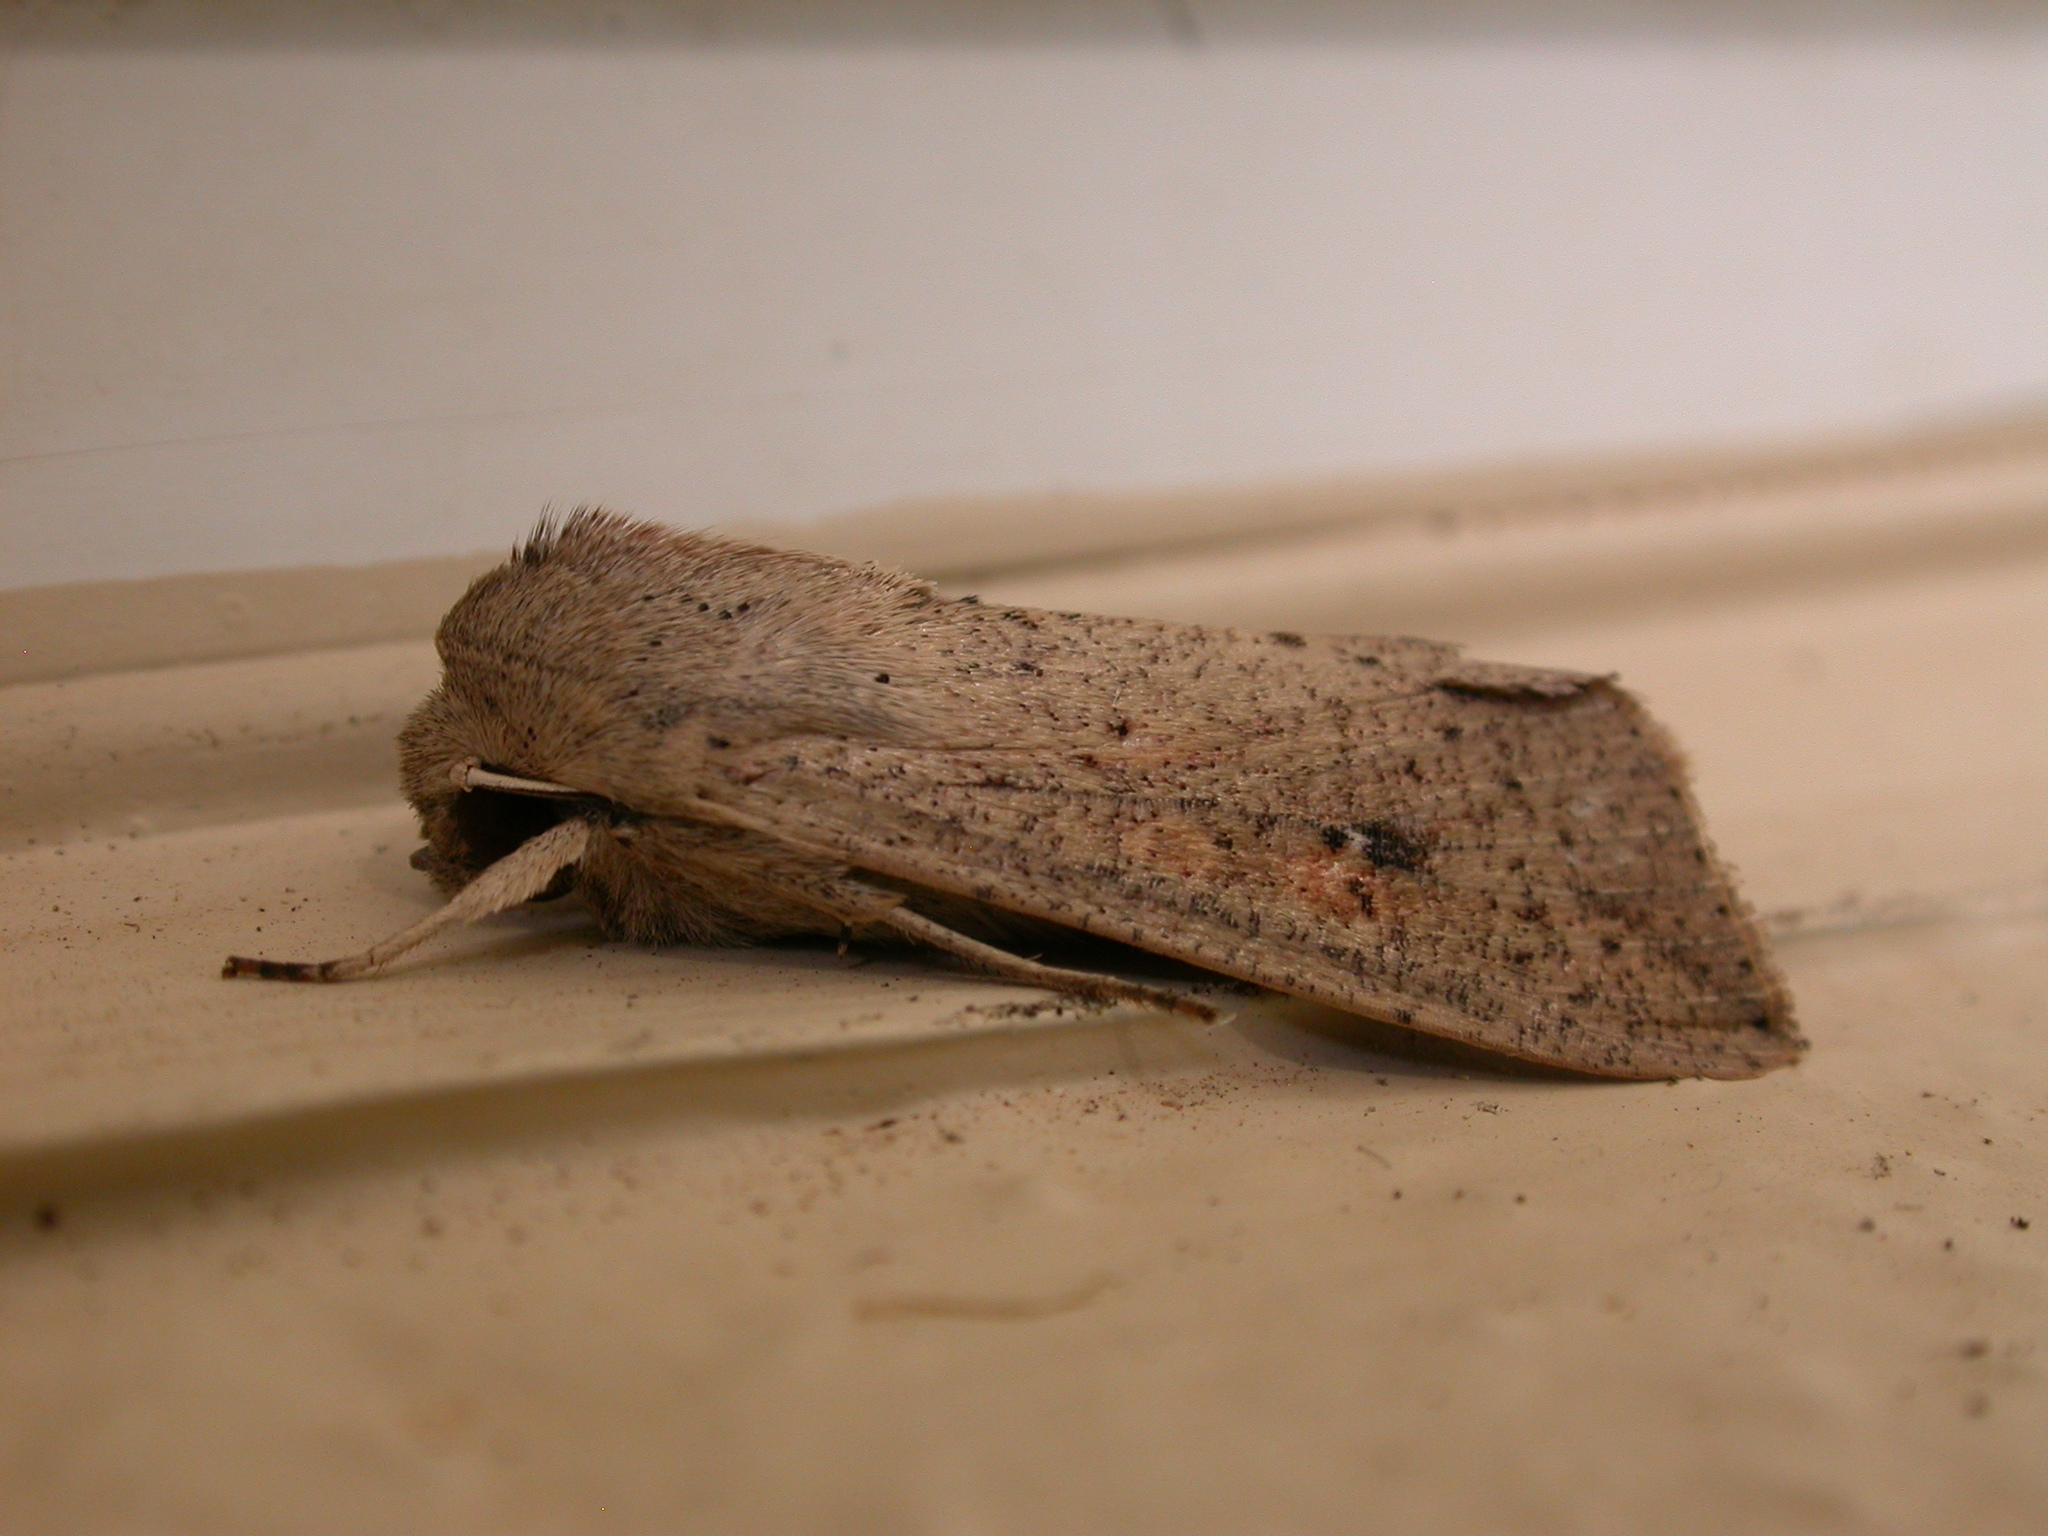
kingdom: Animalia
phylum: Arthropoda
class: Insecta
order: Lepidoptera
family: Noctuidae
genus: Mythimna
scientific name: Mythimna convecta
